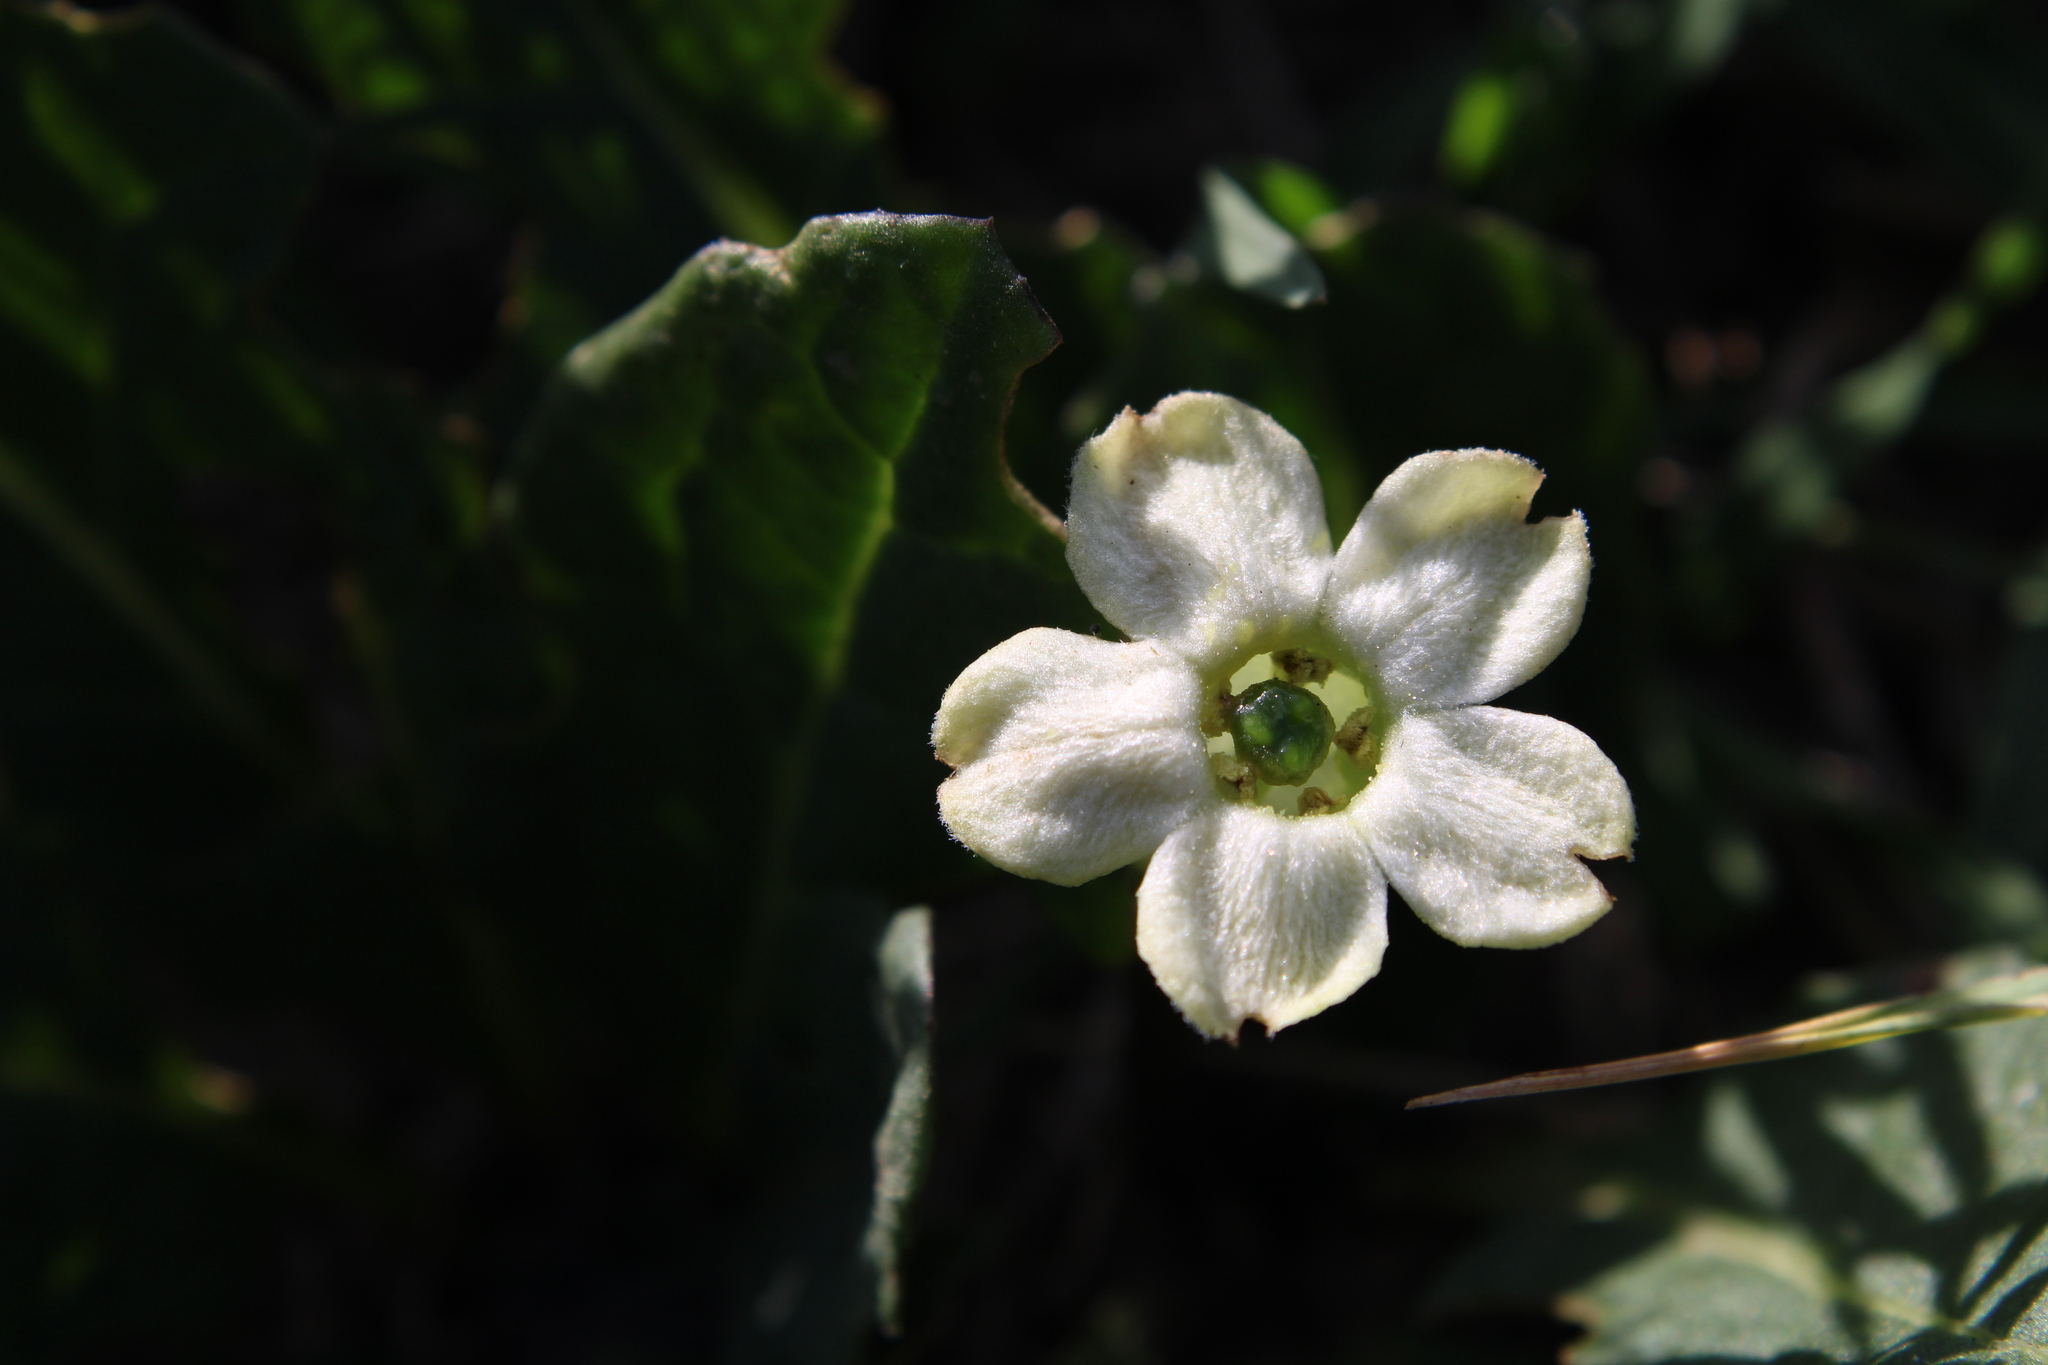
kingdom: Plantae
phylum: Tracheophyta
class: Magnoliopsida
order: Solanales
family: Solanaceae
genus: Jaborosa
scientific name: Jaborosa runcinata
